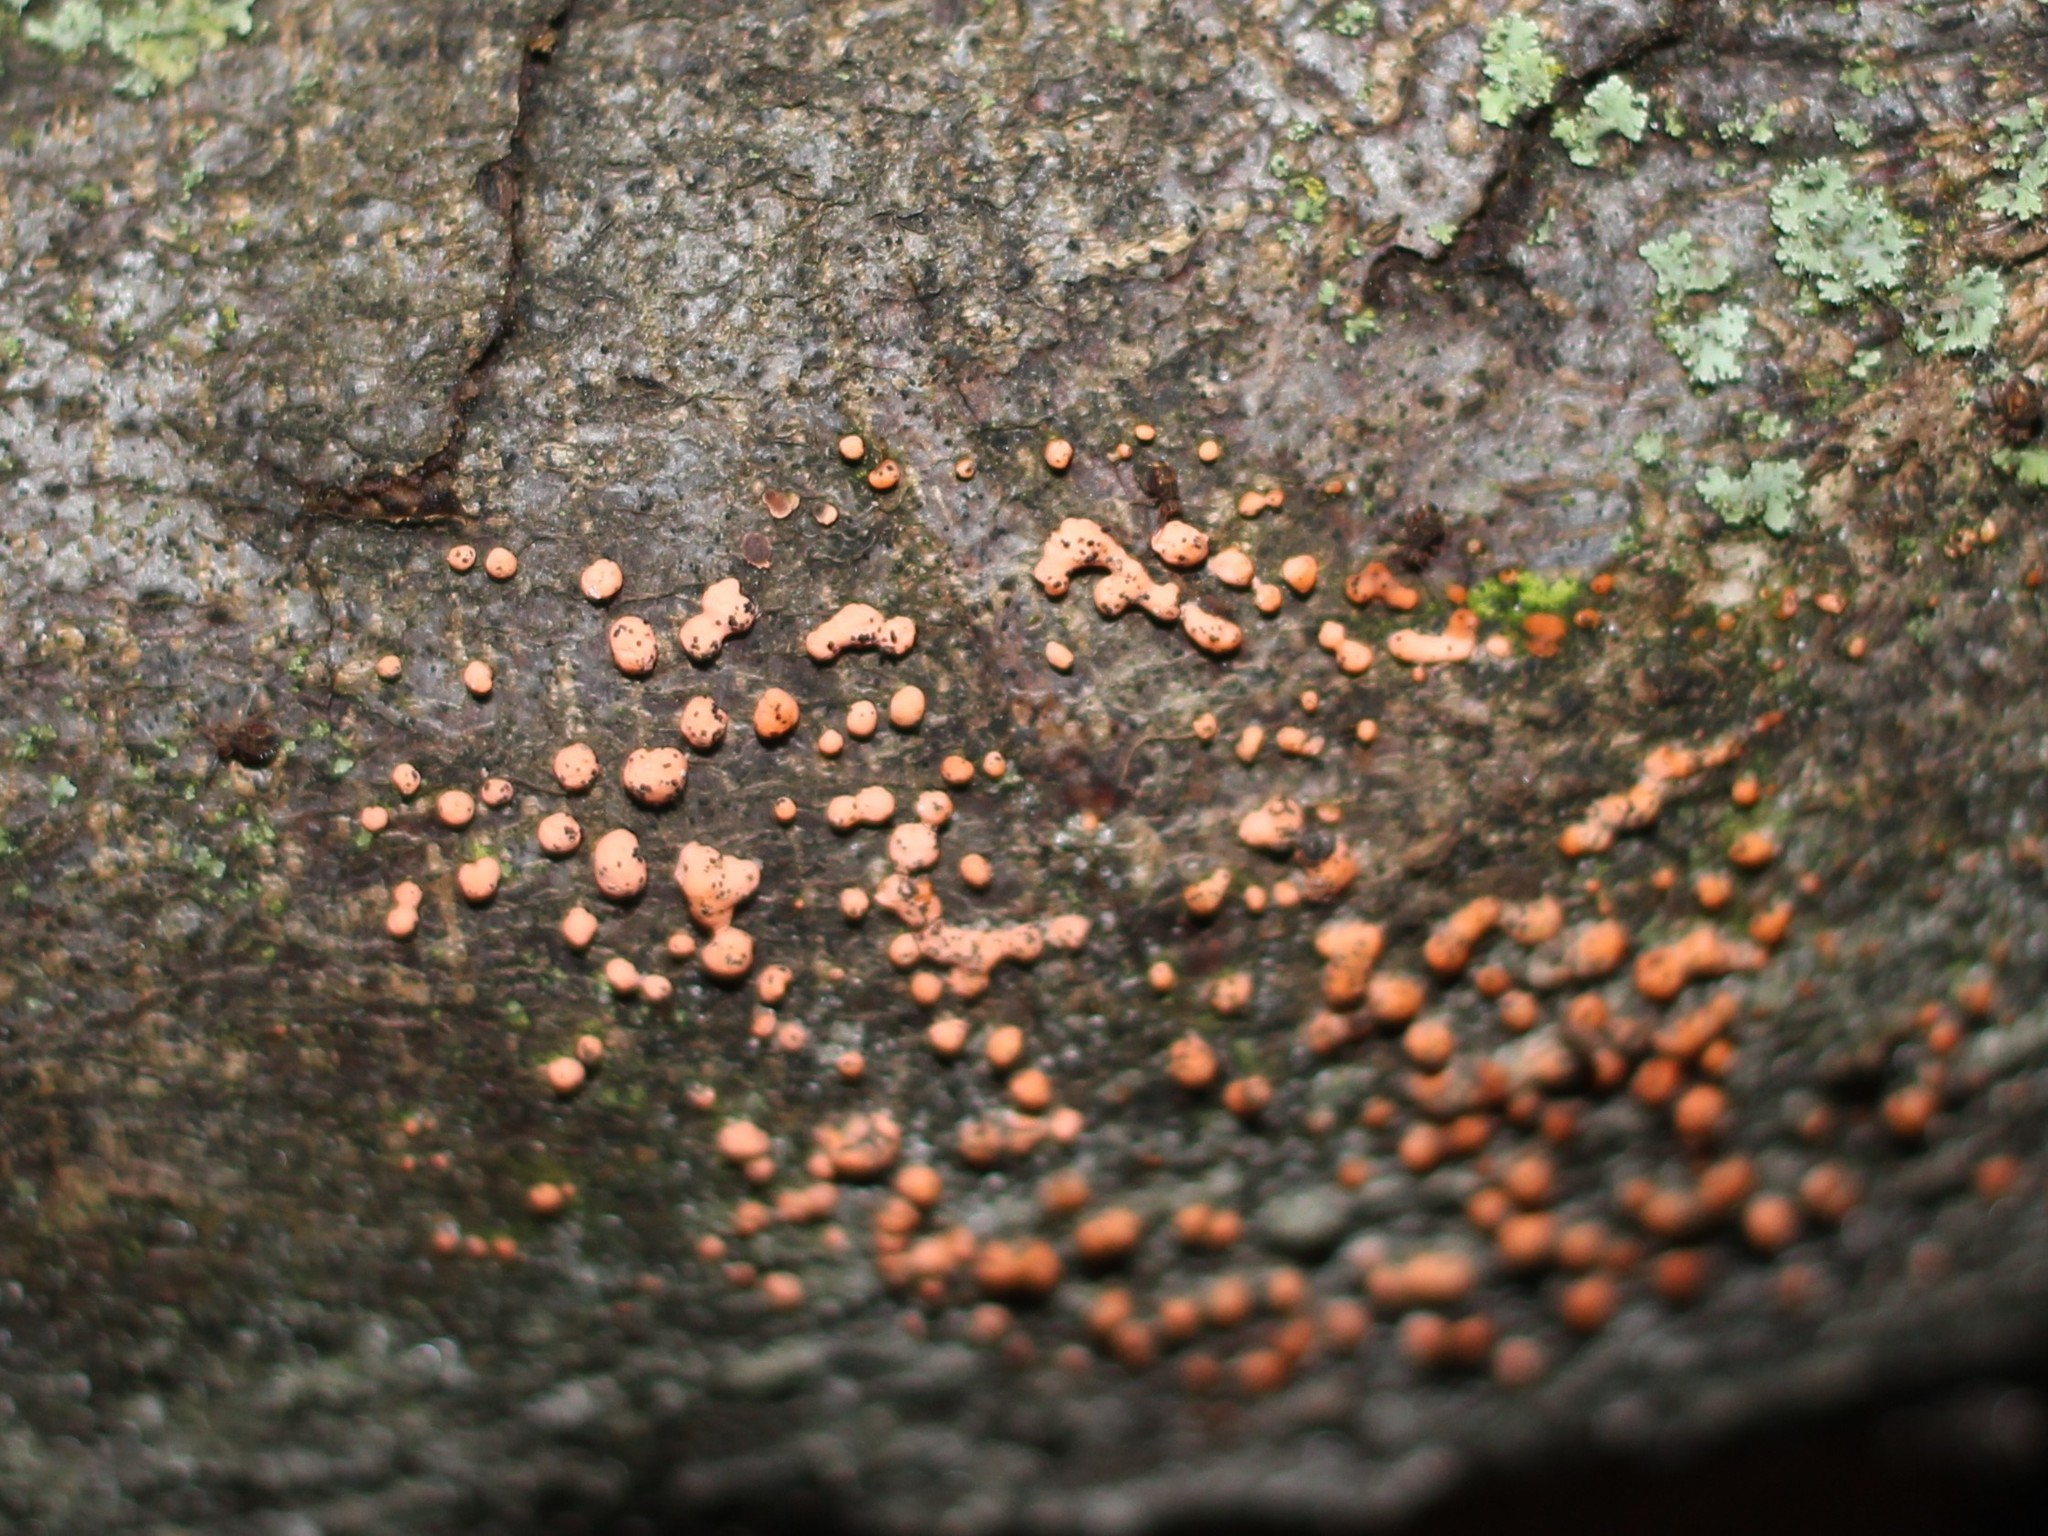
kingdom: Fungi
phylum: Ascomycota
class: Sordariomycetes
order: Hypocreales
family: Nectriaceae
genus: Nectria
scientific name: Nectria cinnabarina
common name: Coral spot
